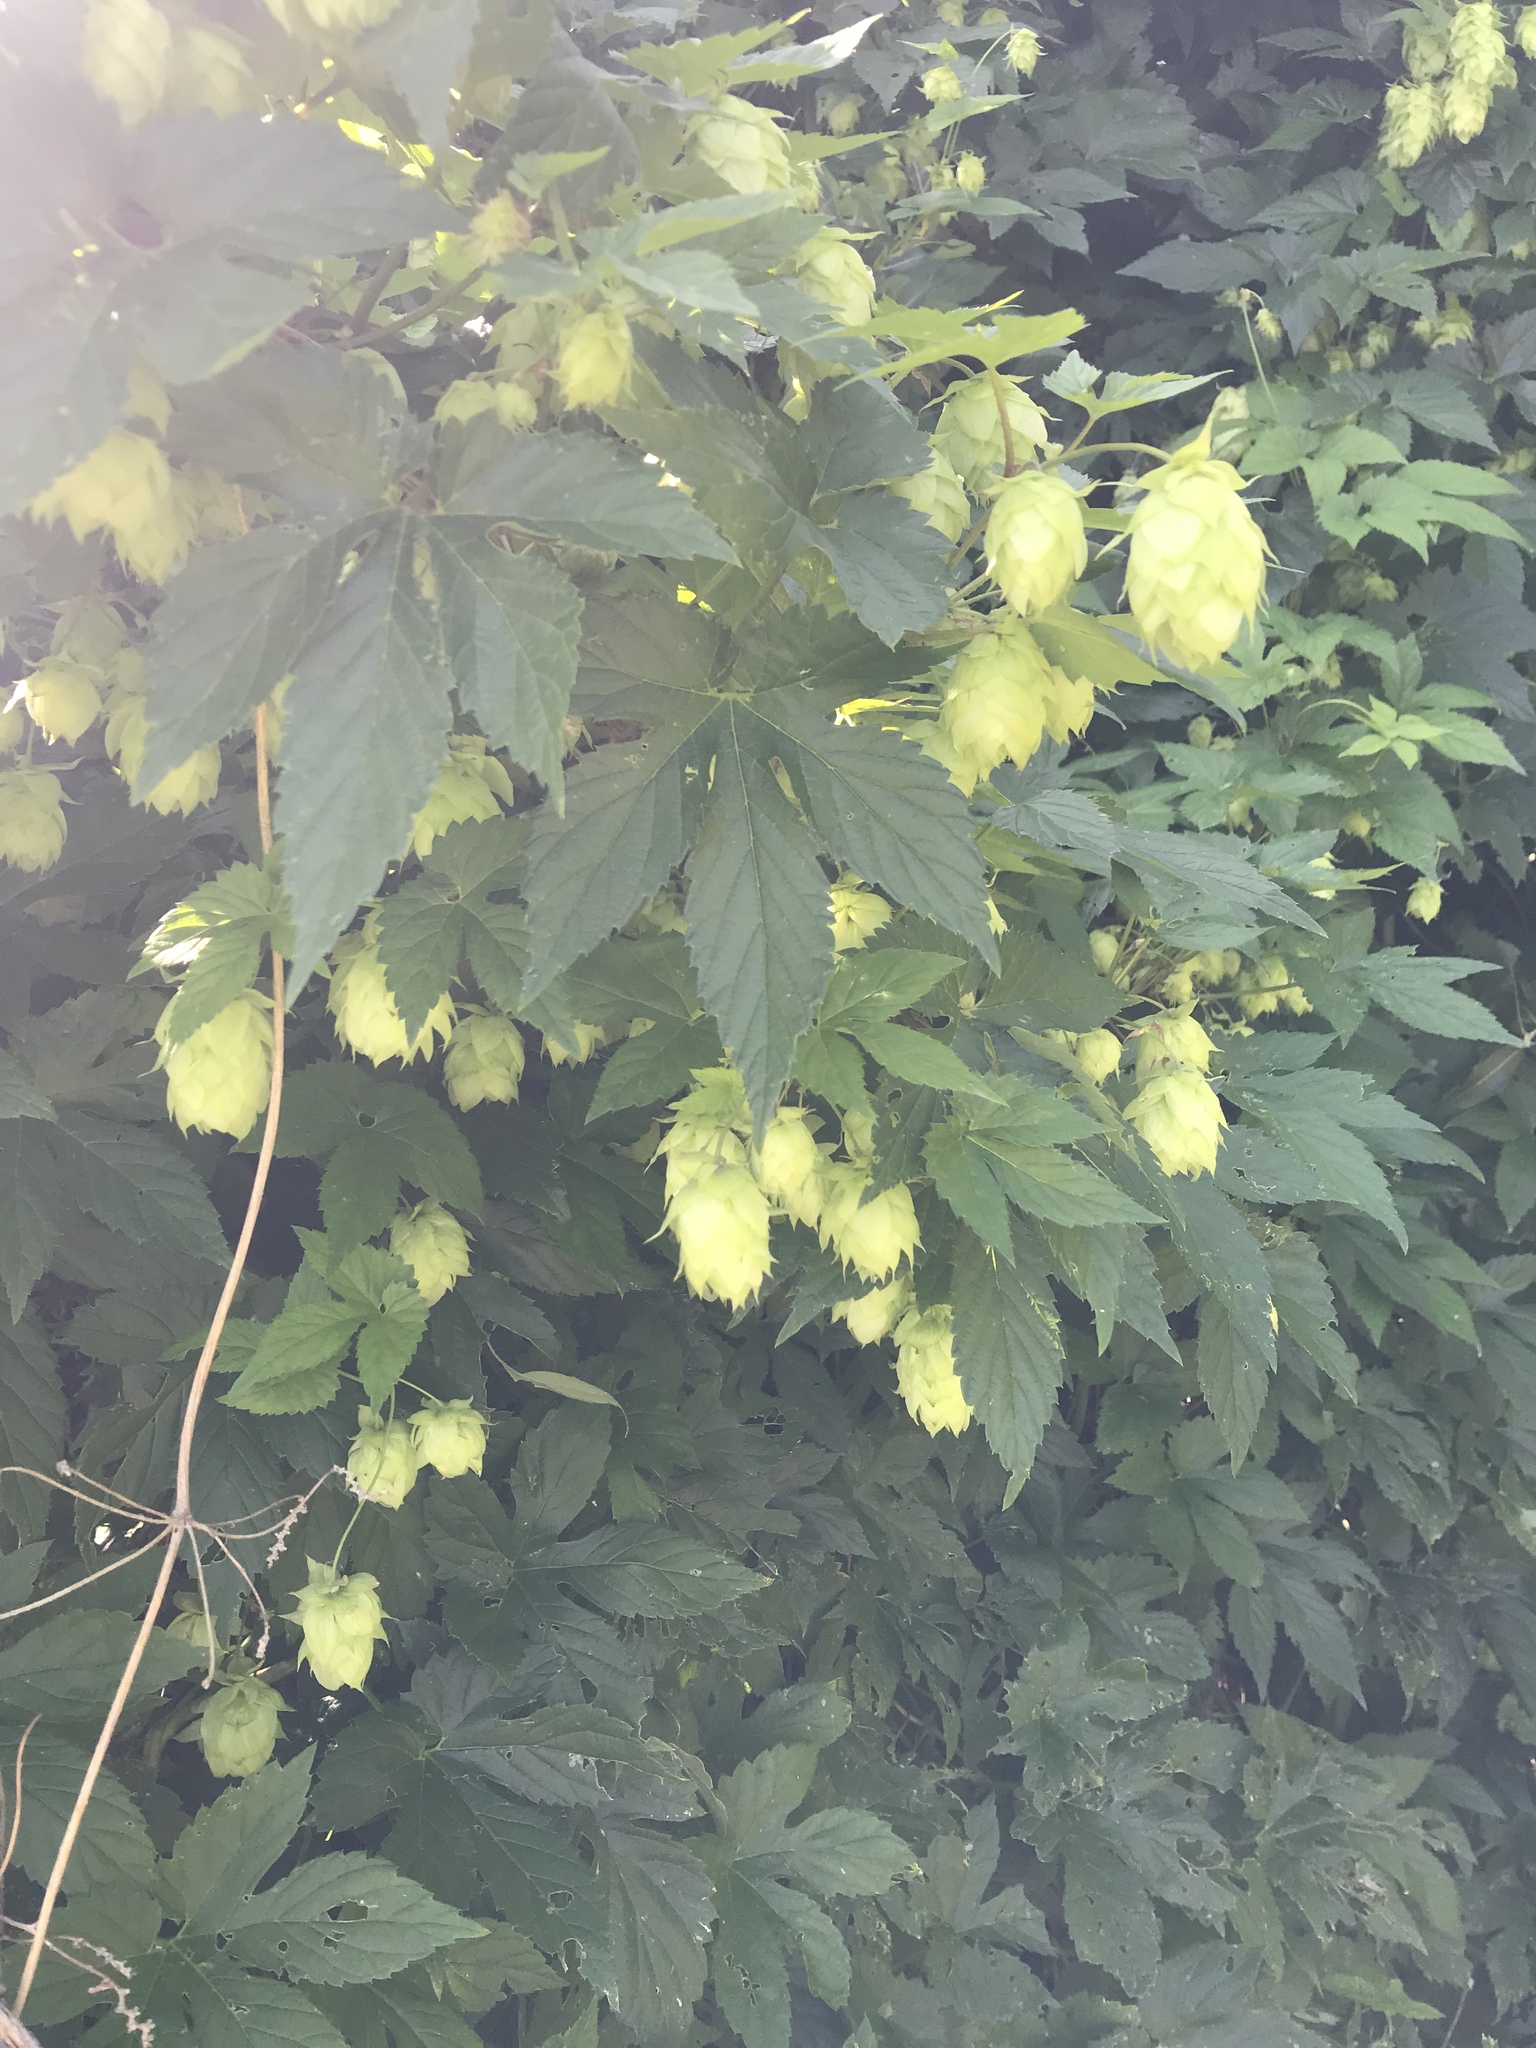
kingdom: Plantae
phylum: Tracheophyta
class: Magnoliopsida
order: Rosales
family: Cannabaceae
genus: Humulus
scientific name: Humulus lupulus
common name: Hop
